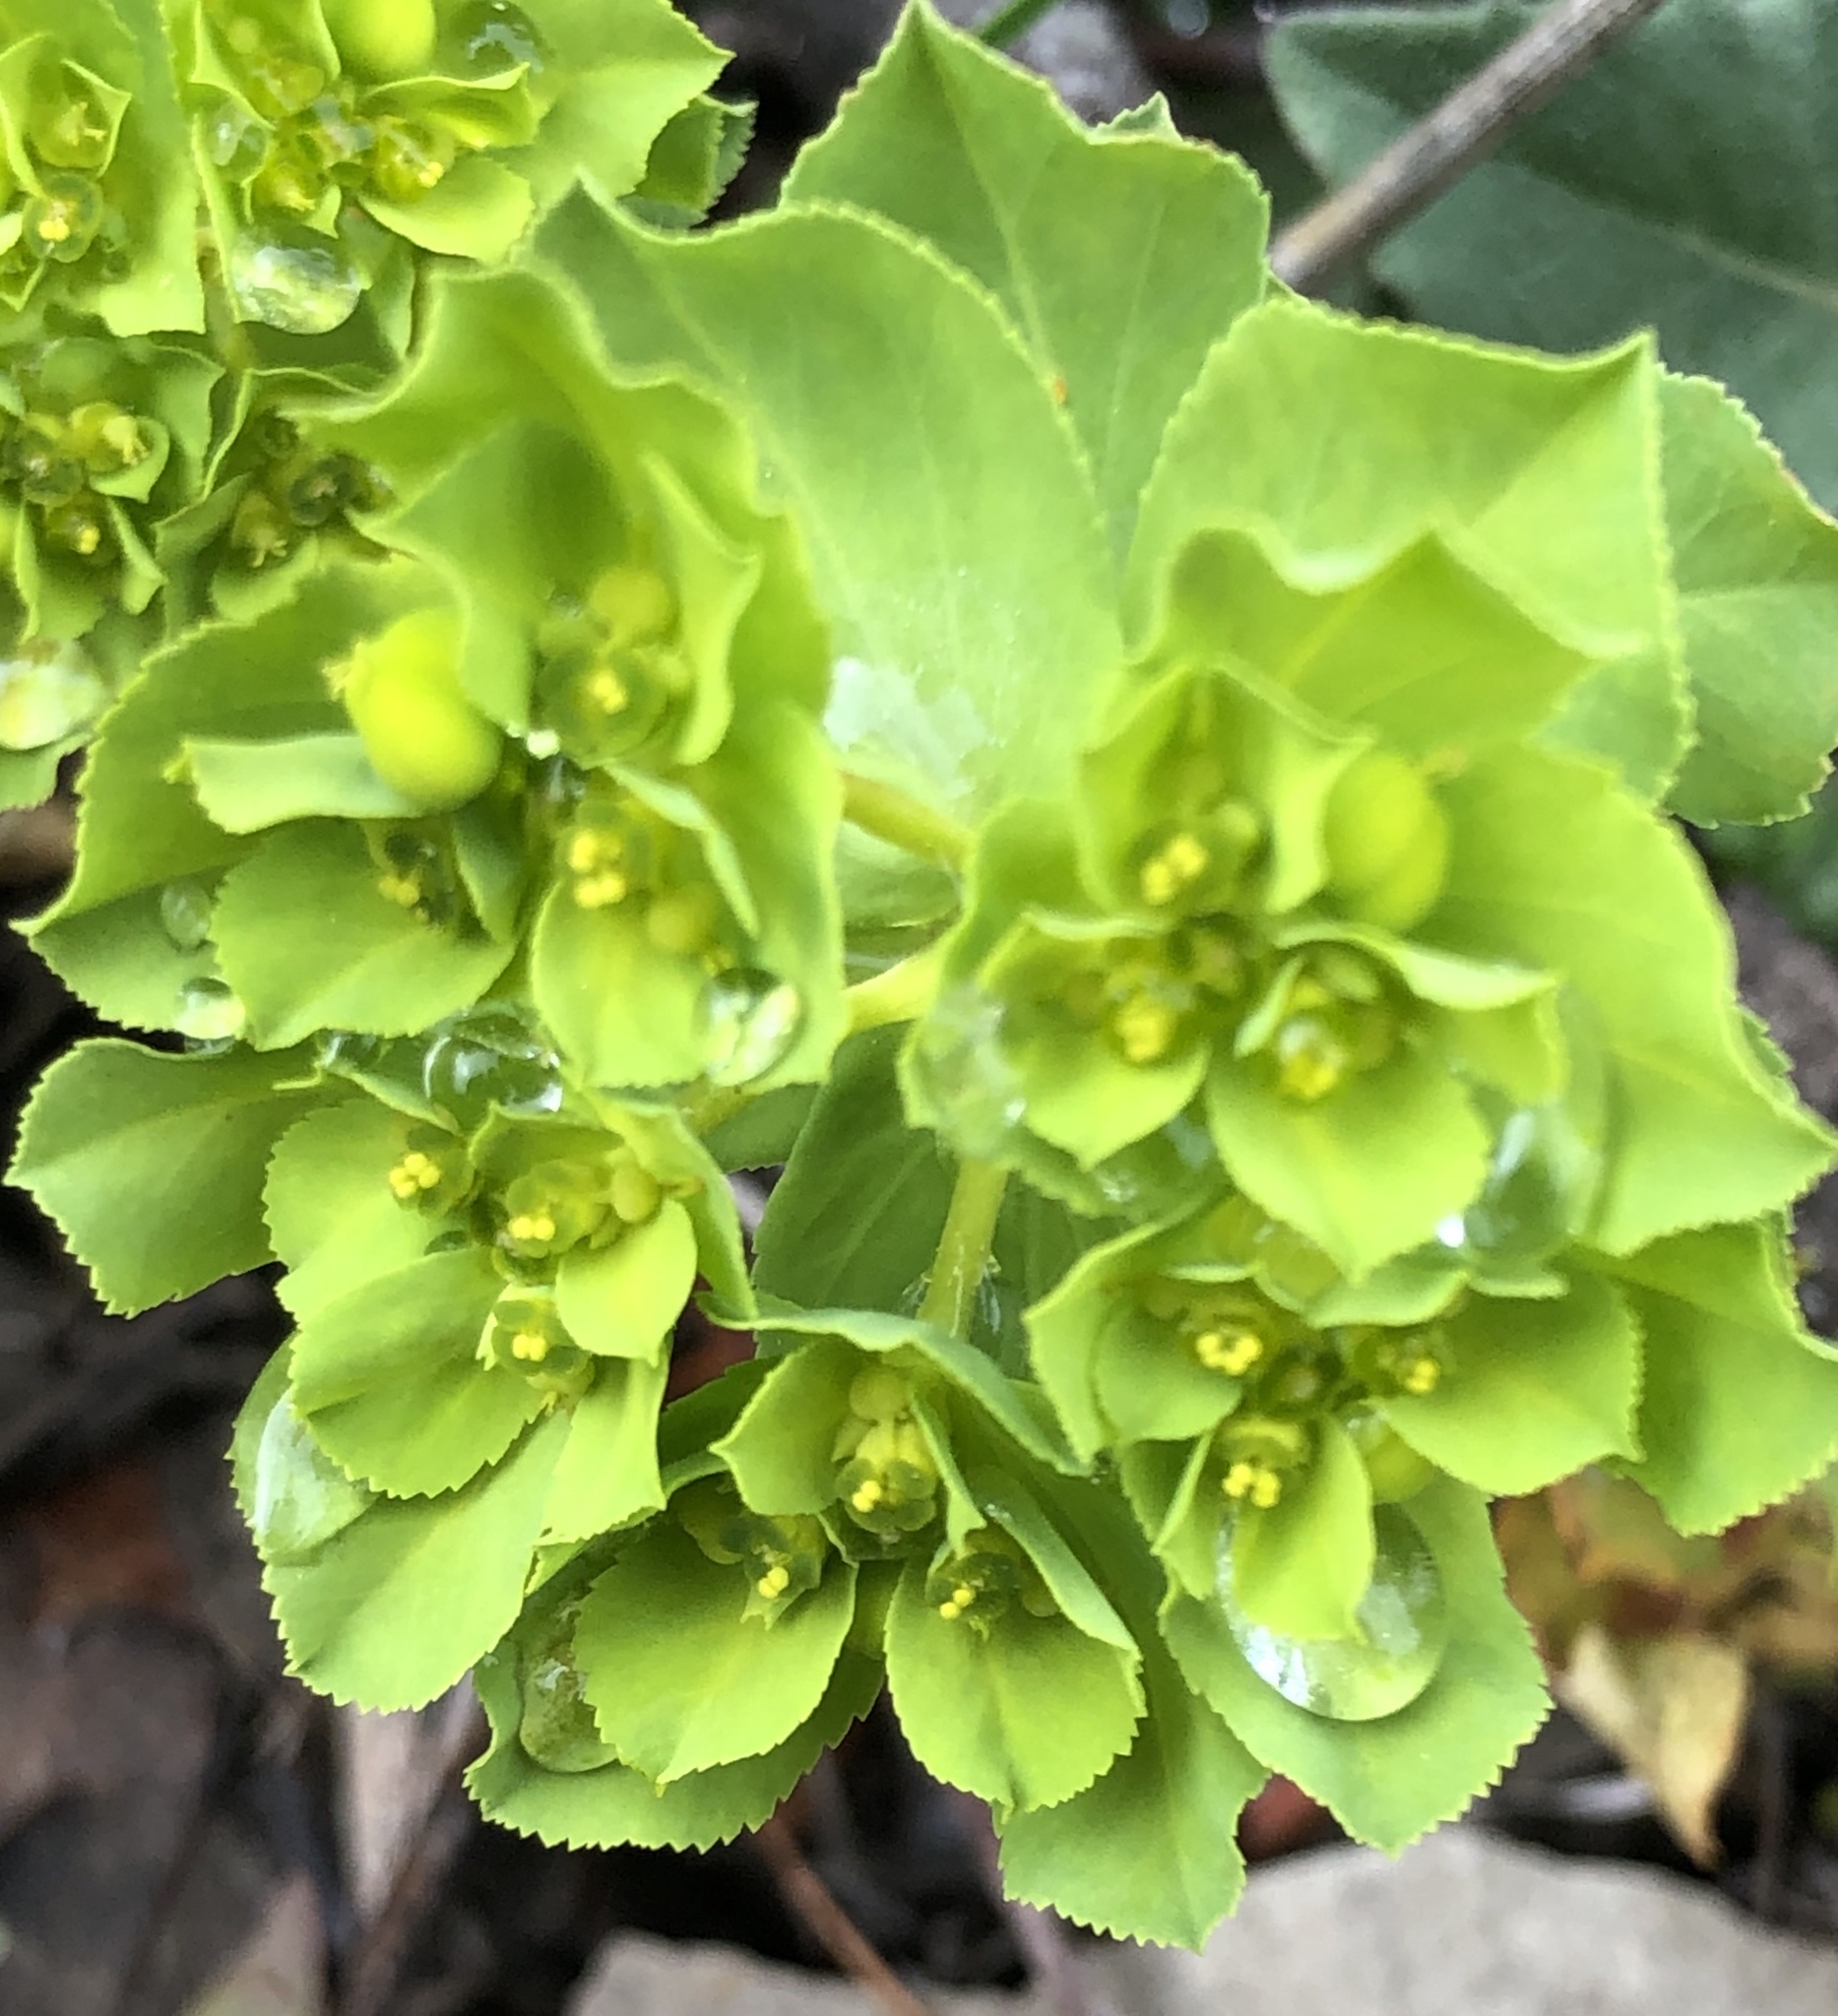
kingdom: Plantae
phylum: Tracheophyta
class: Magnoliopsida
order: Malpighiales
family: Euphorbiaceae
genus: Euphorbia
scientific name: Euphorbia helioscopia
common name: Sun spurge
